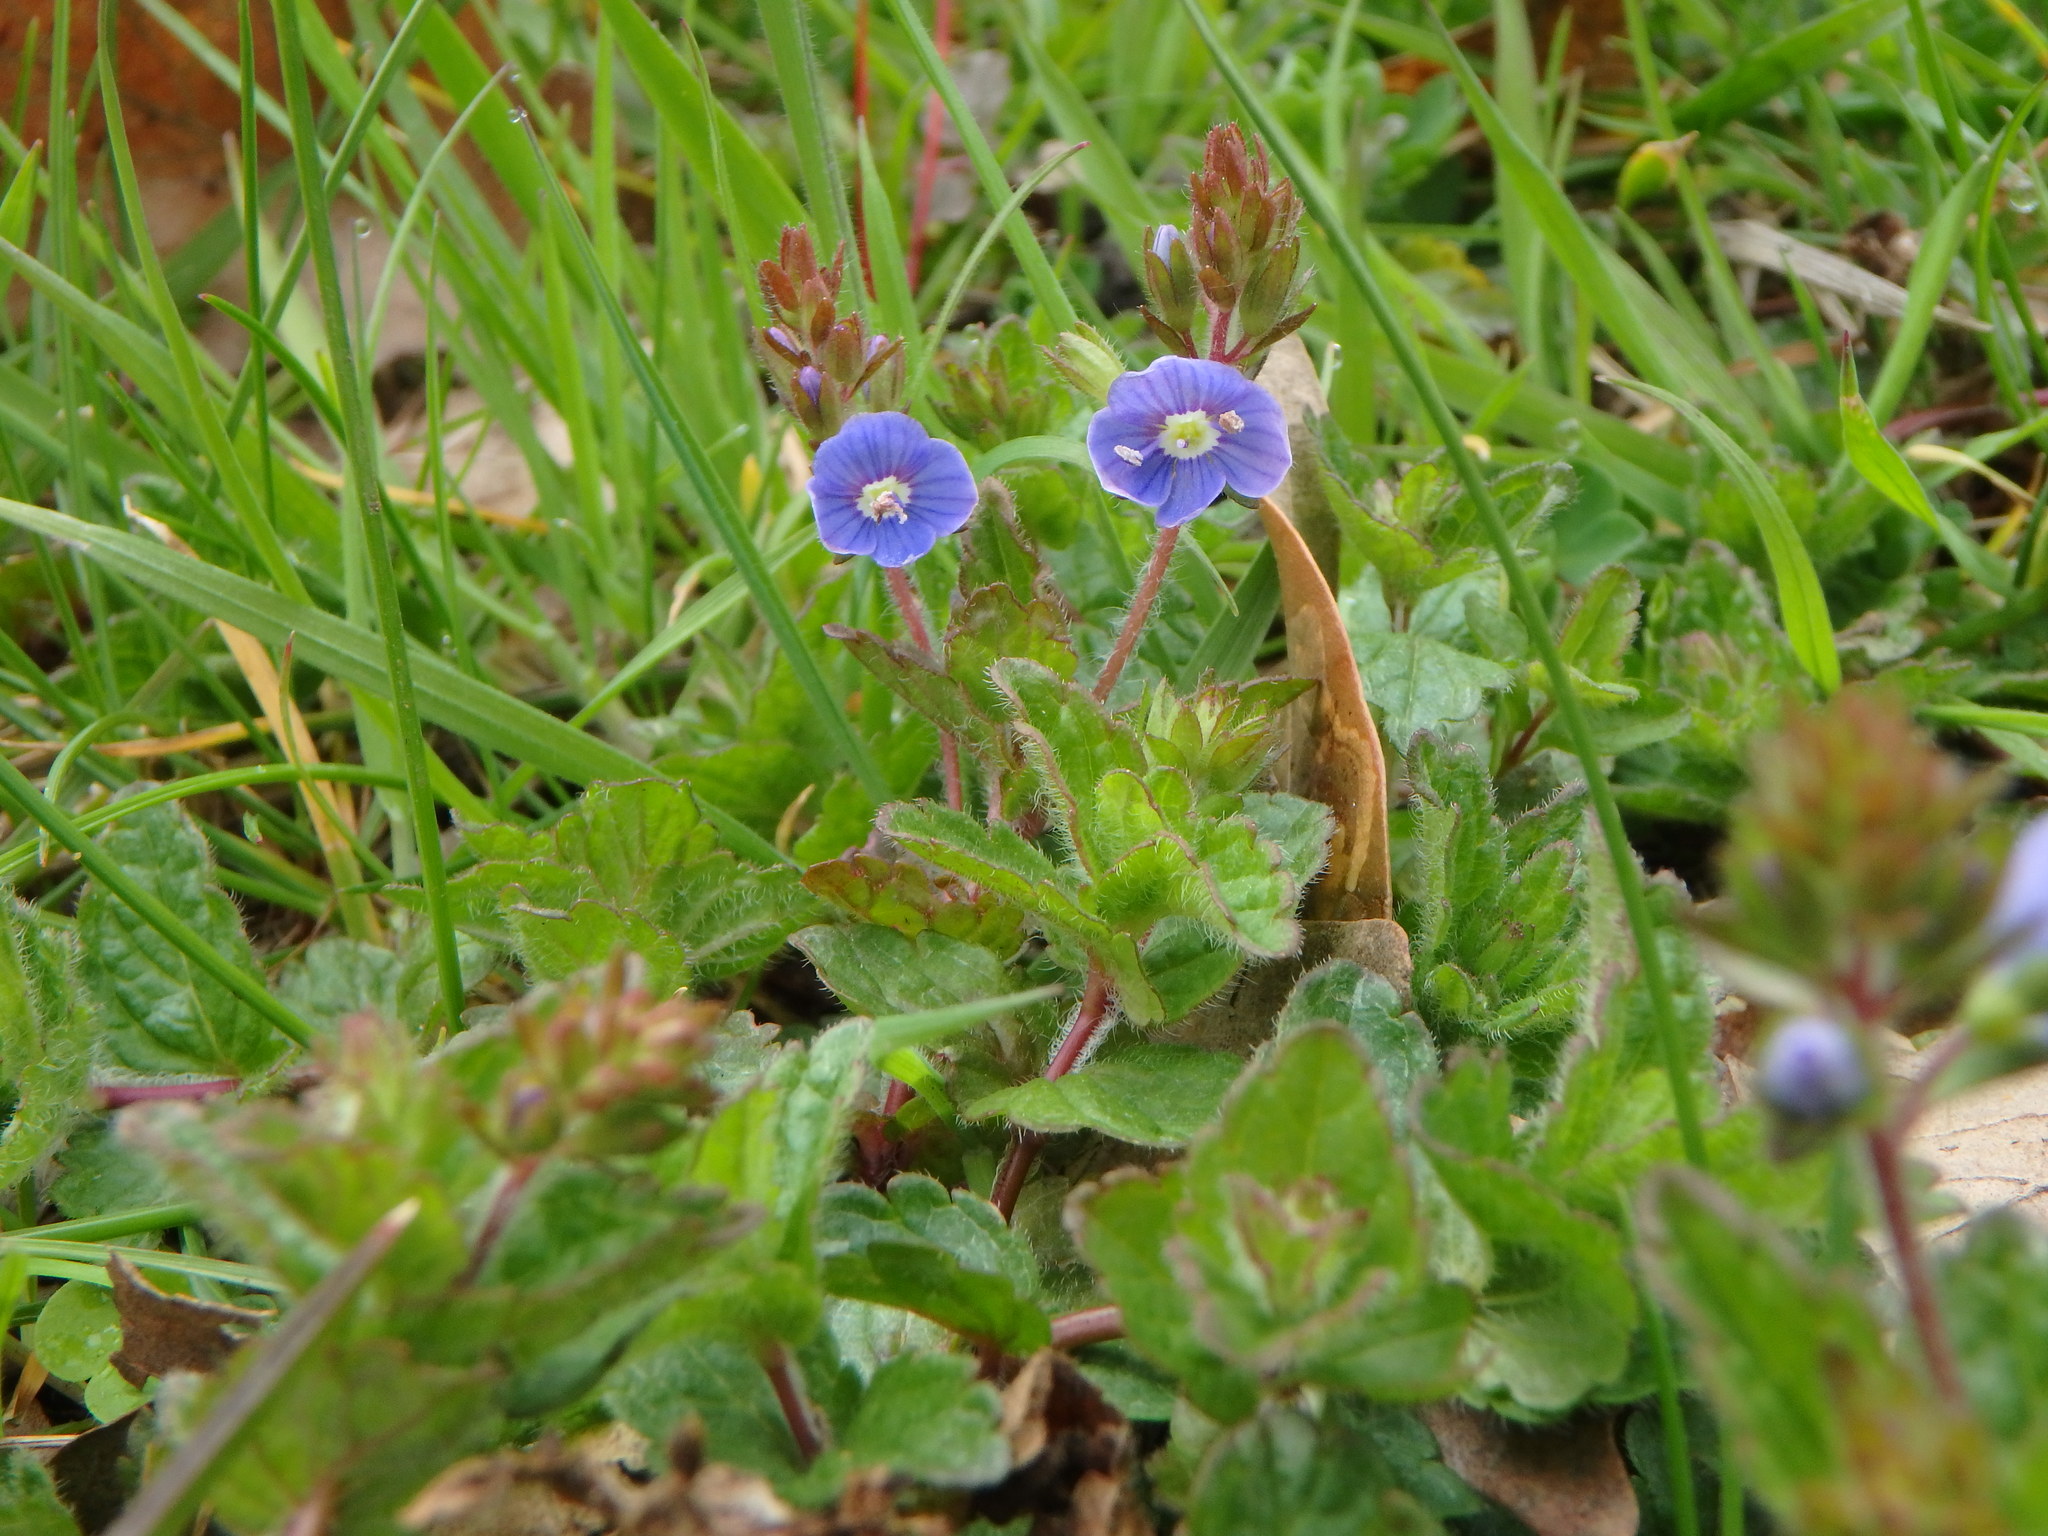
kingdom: Plantae
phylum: Tracheophyta
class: Magnoliopsida
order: Lamiales
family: Plantaginaceae
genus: Veronica
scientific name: Veronica chamaedrys
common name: Germander speedwell
